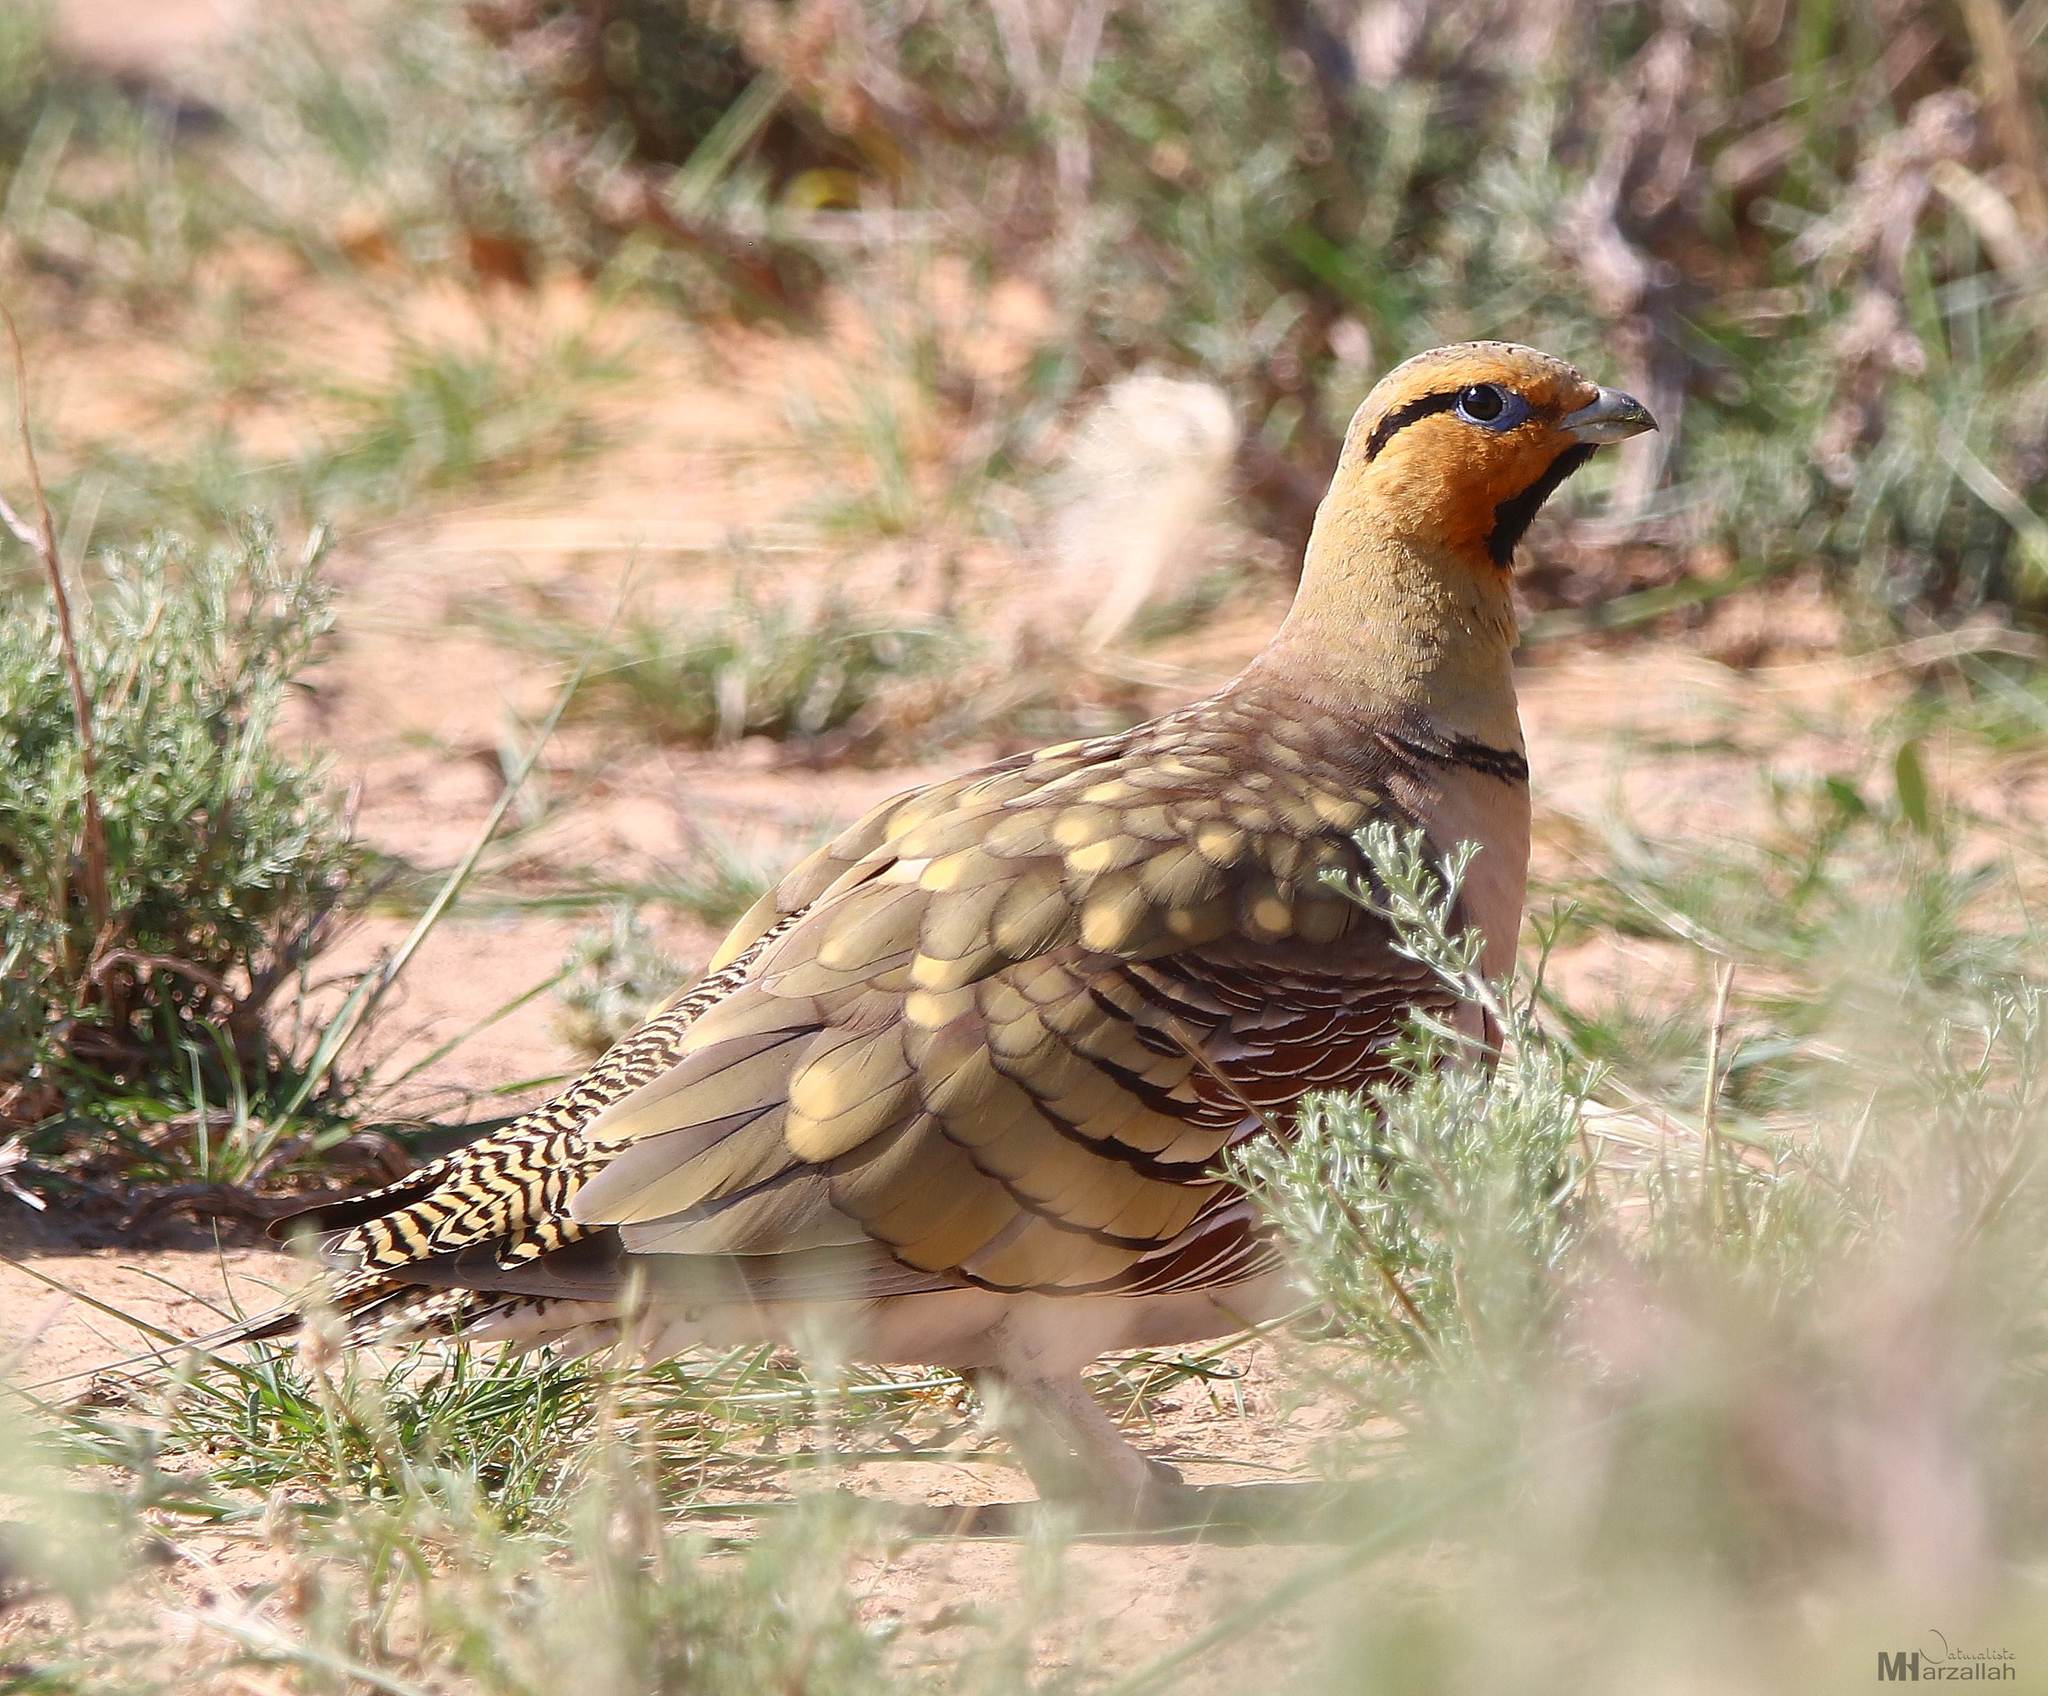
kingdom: Animalia
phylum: Chordata
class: Aves
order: Pteroclidiformes
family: Pteroclididae
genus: Pterocles
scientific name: Pterocles alchata
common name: Pin-tailed sandgrouse
